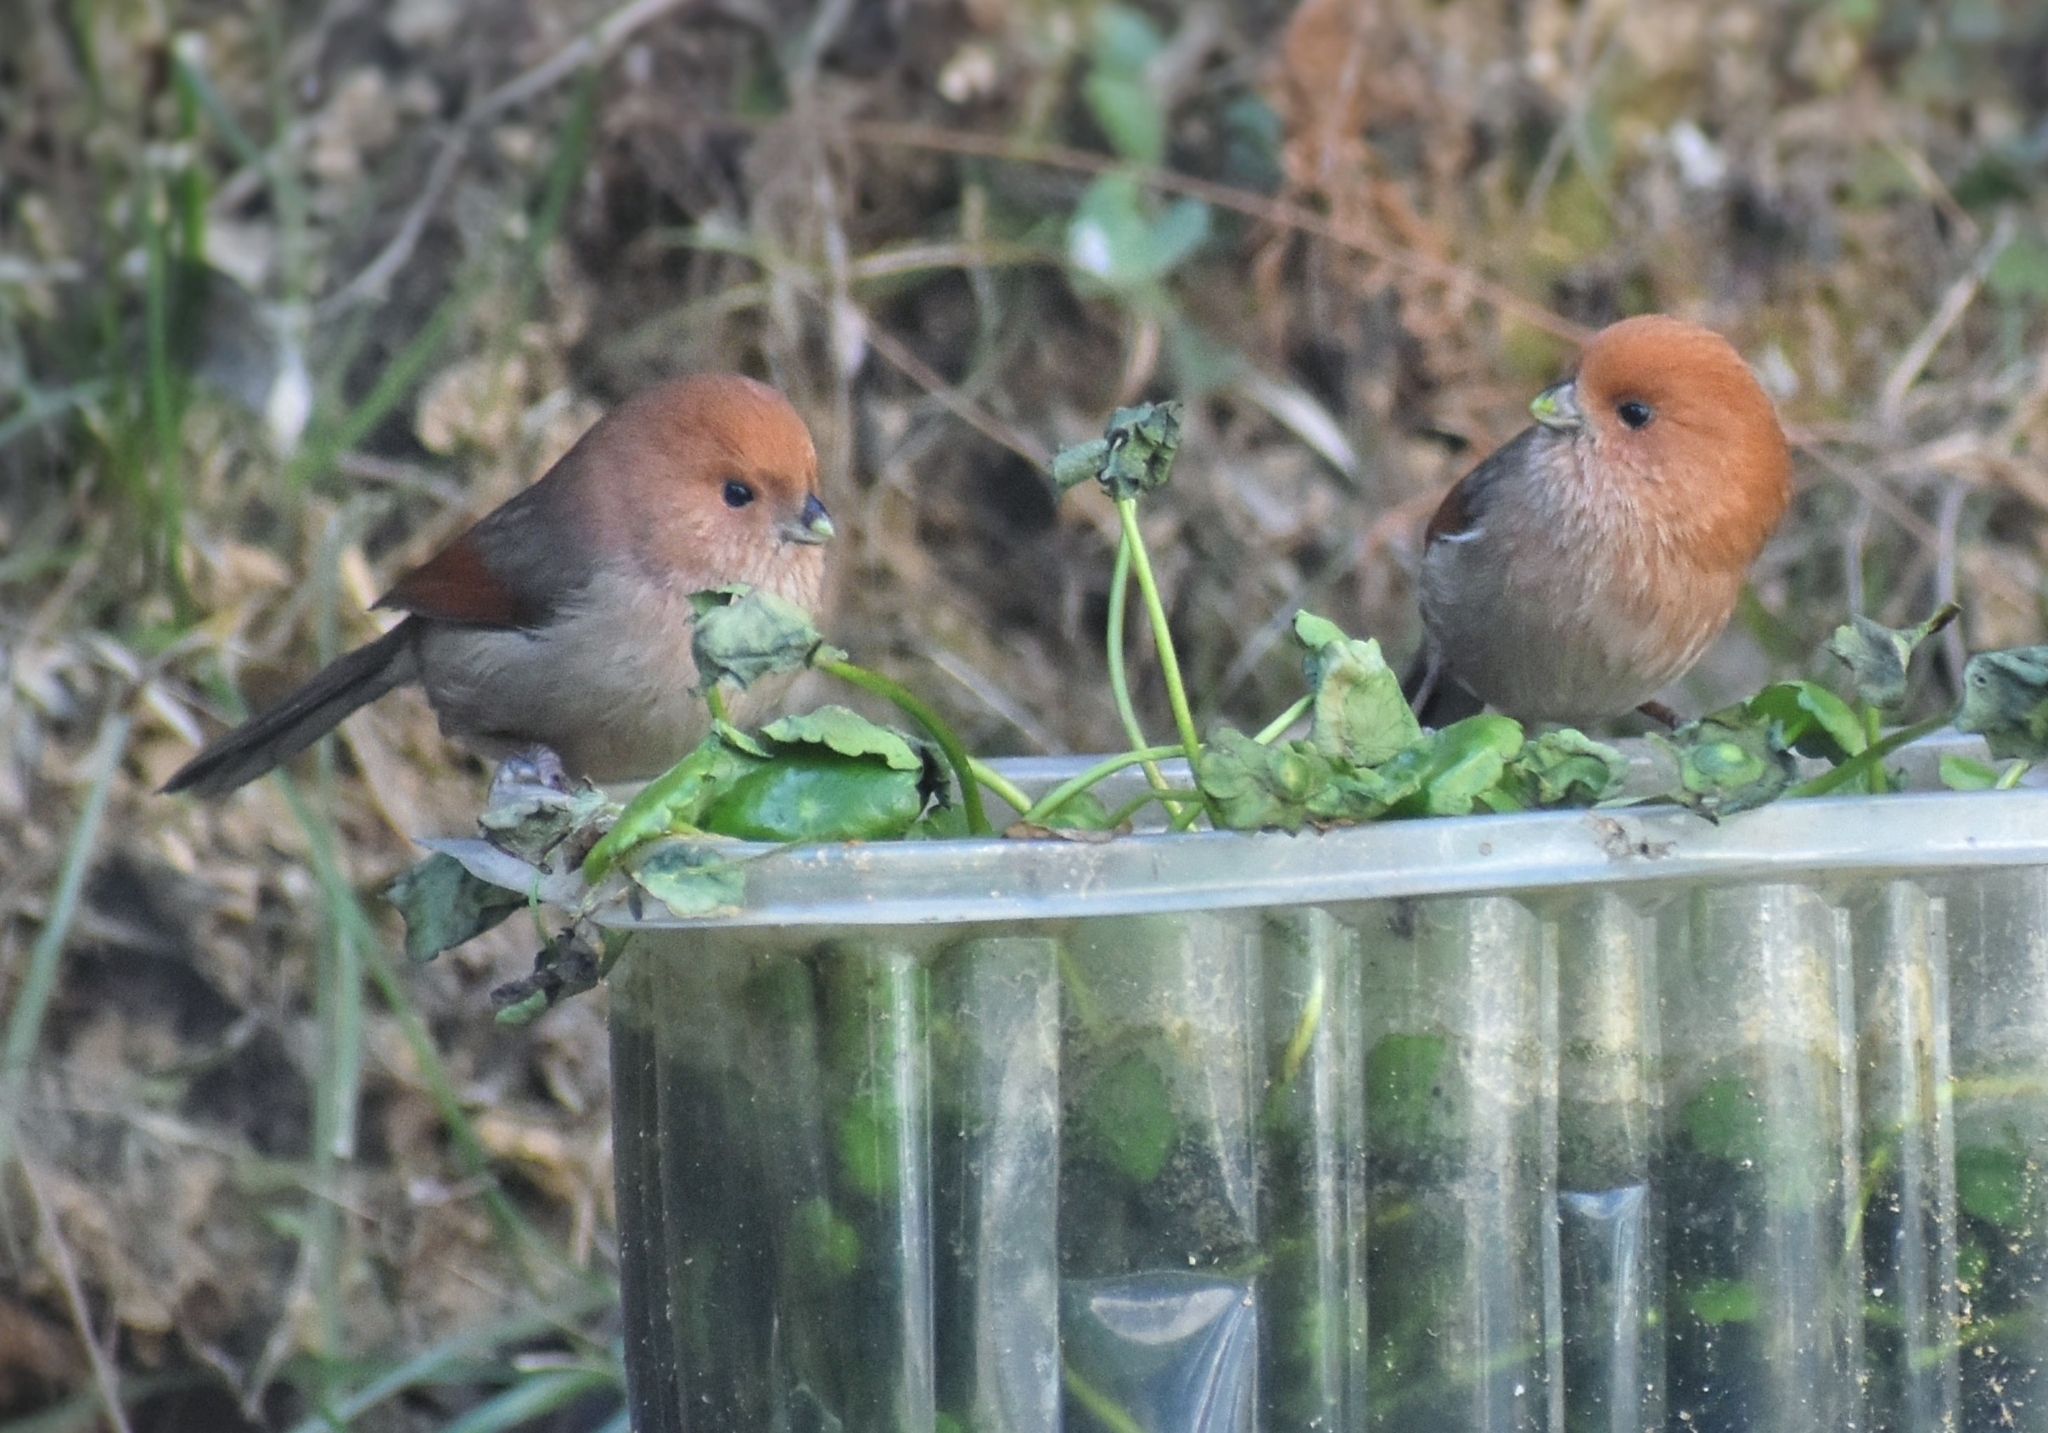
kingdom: Animalia
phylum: Chordata
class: Aves
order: Passeriformes
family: Sylviidae
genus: Sinosuthora
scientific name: Sinosuthora webbiana
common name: Vinous-throated parrotbill
